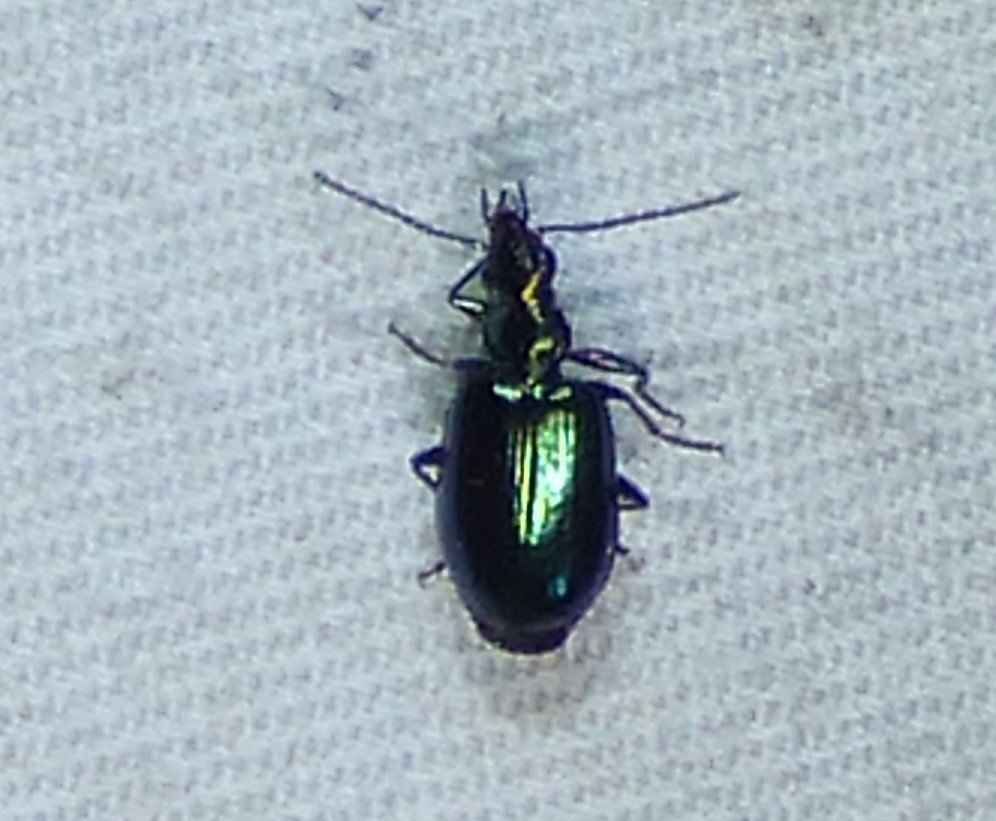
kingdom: Animalia
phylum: Arthropoda
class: Insecta
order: Coleoptera
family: Carabidae
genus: Lebia
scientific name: Lebia viridis
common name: Flower lebia beetle
